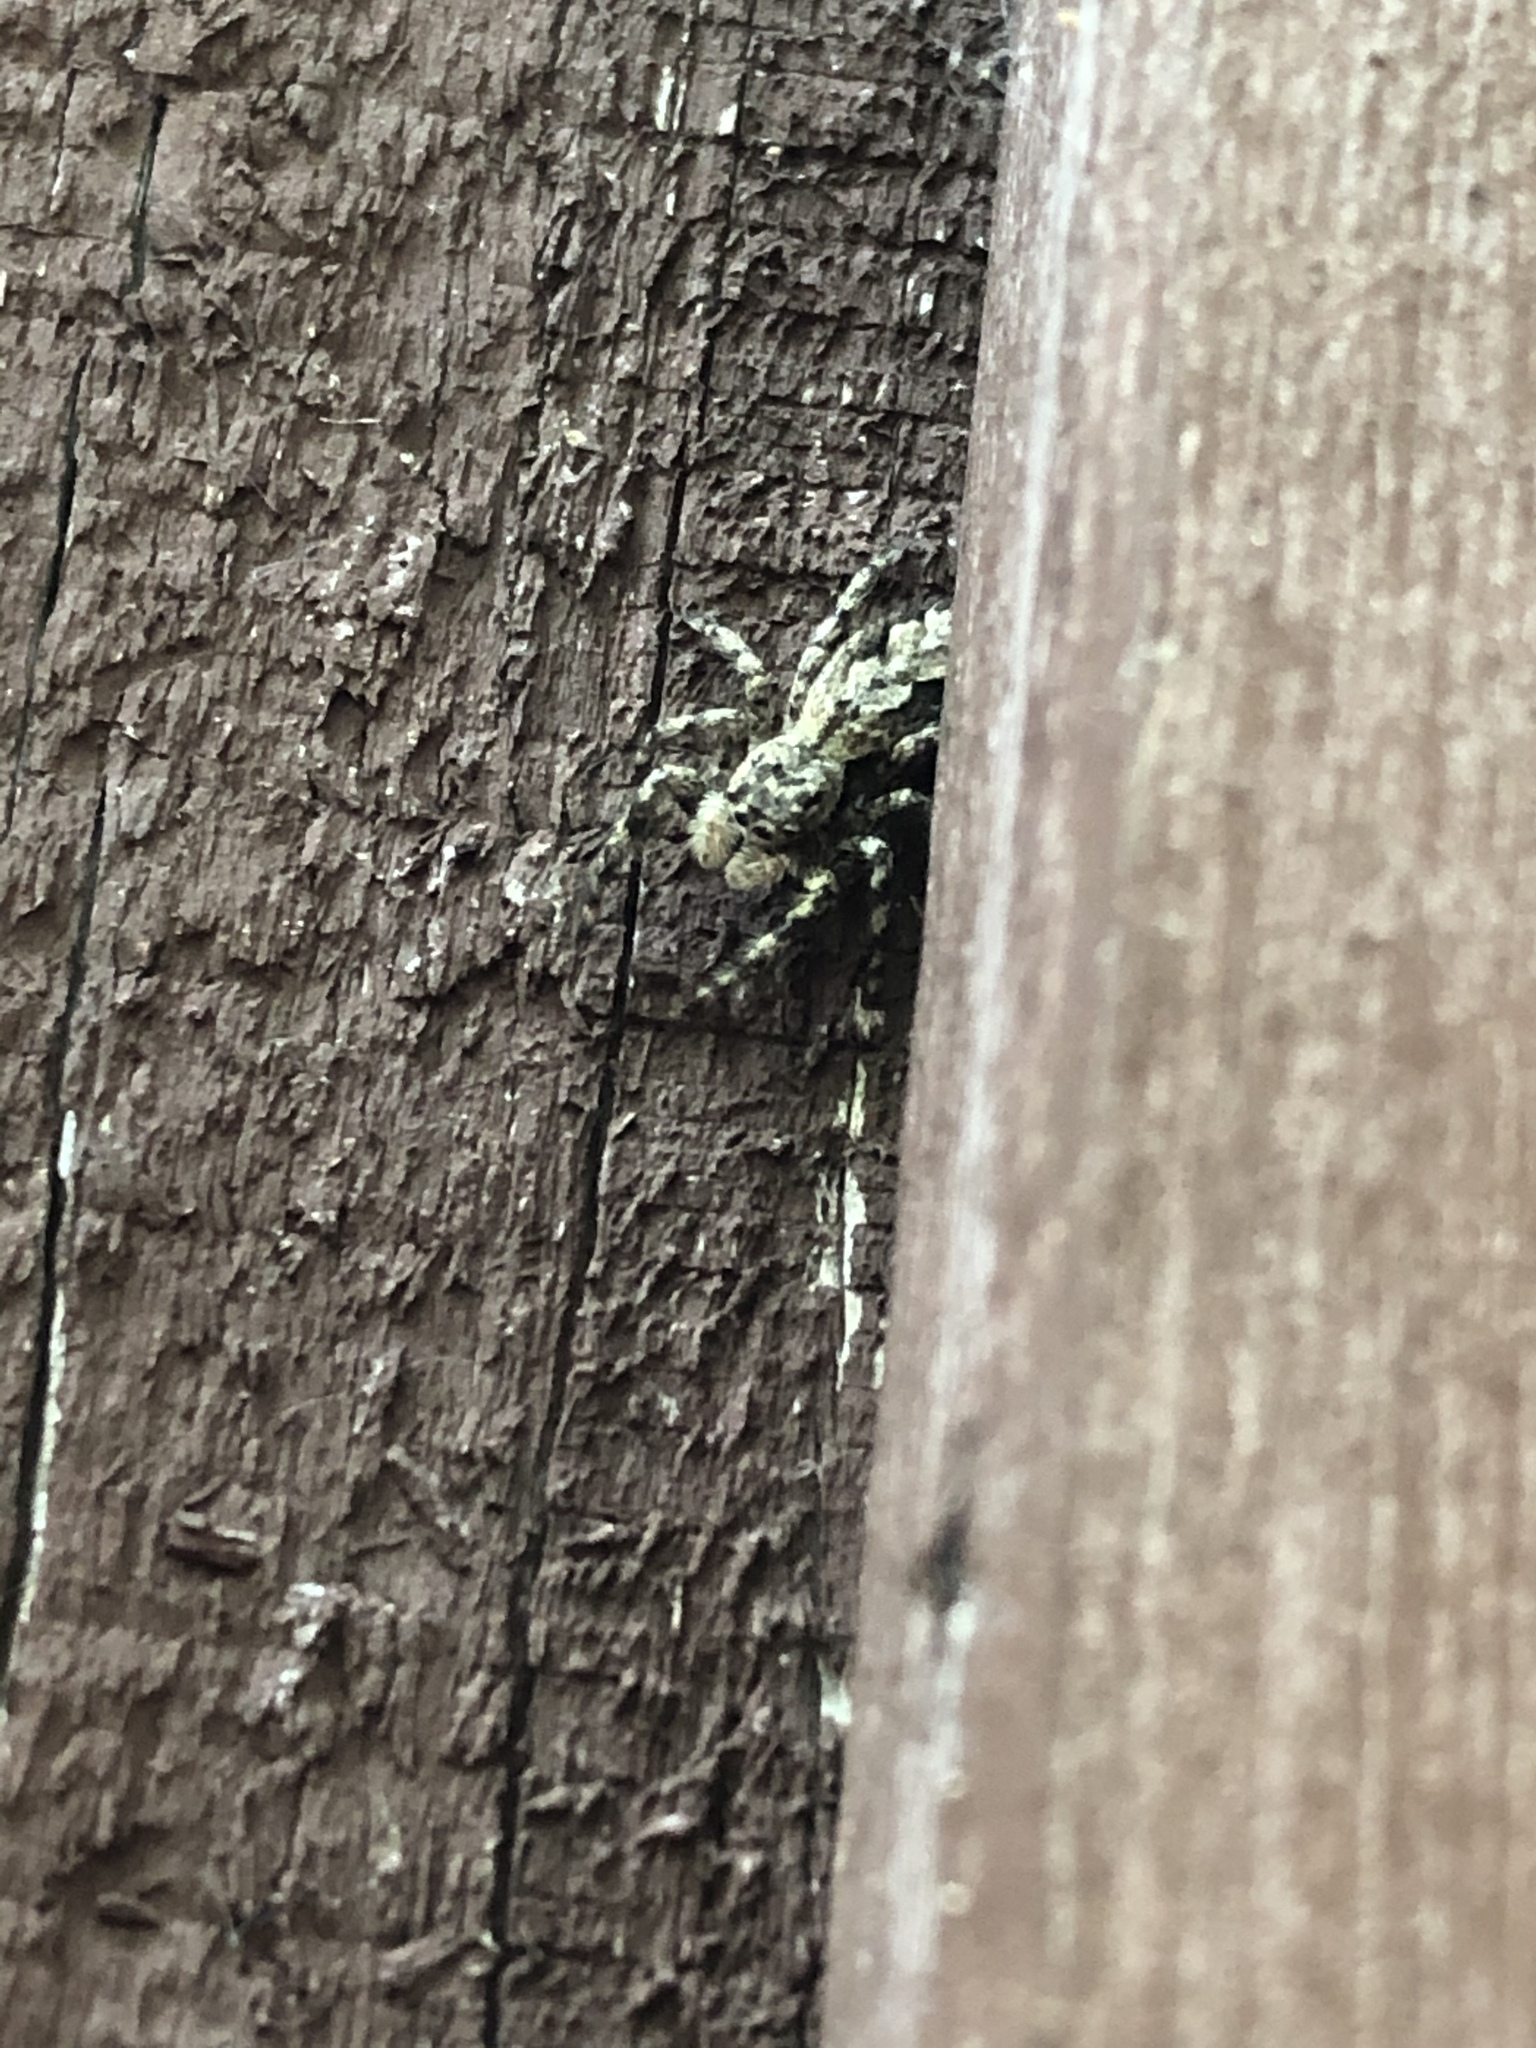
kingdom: Animalia
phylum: Arthropoda
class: Arachnida
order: Araneae
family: Salticidae
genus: Platycryptus
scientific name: Platycryptus undatus
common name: Tan jumping spider
